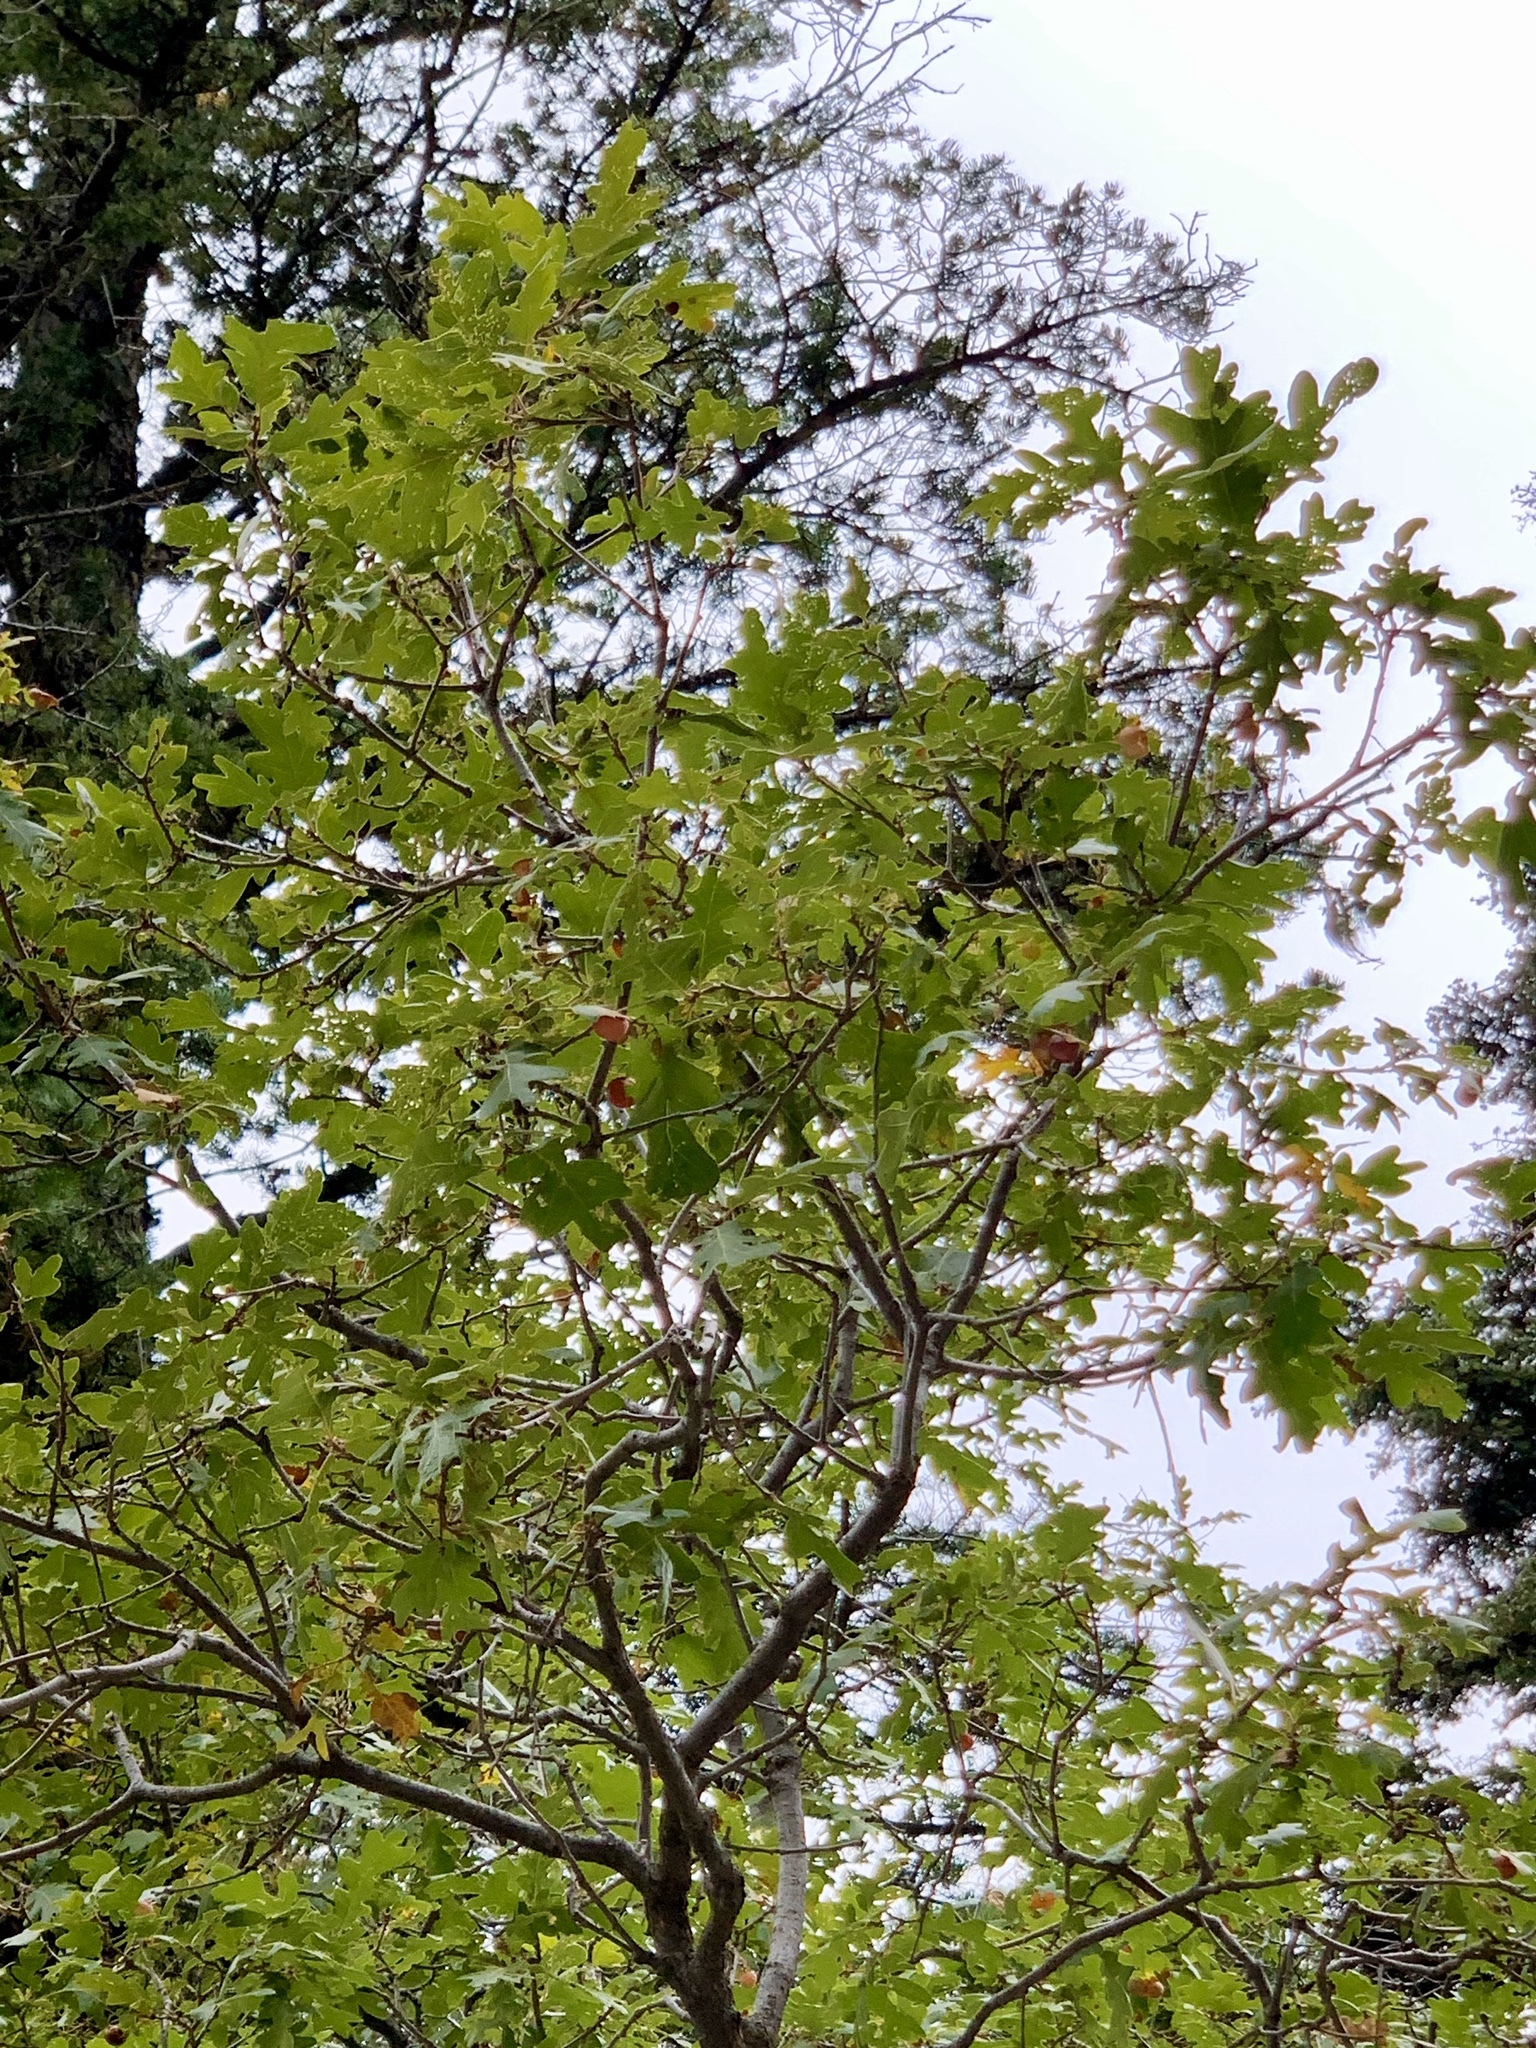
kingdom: Plantae
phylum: Tracheophyta
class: Magnoliopsida
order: Fagales
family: Fagaceae
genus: Quercus
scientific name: Quercus gambelii
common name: Gambel oak
